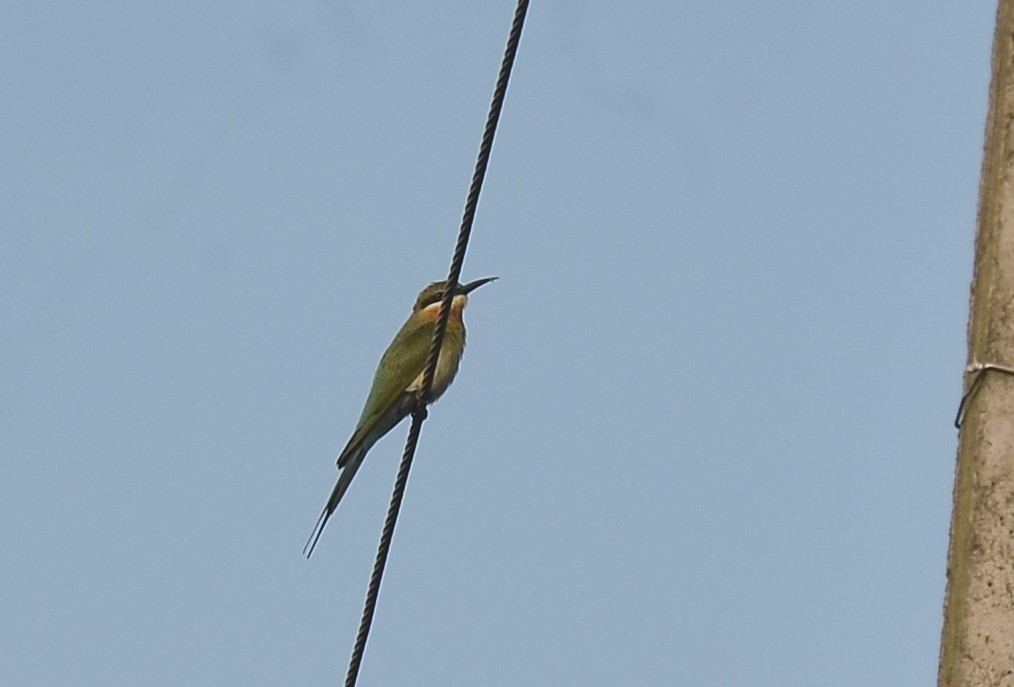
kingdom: Animalia
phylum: Chordata
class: Aves
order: Coraciiformes
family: Meropidae
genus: Merops
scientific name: Merops philippinus
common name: Blue-tailed bee-eater
